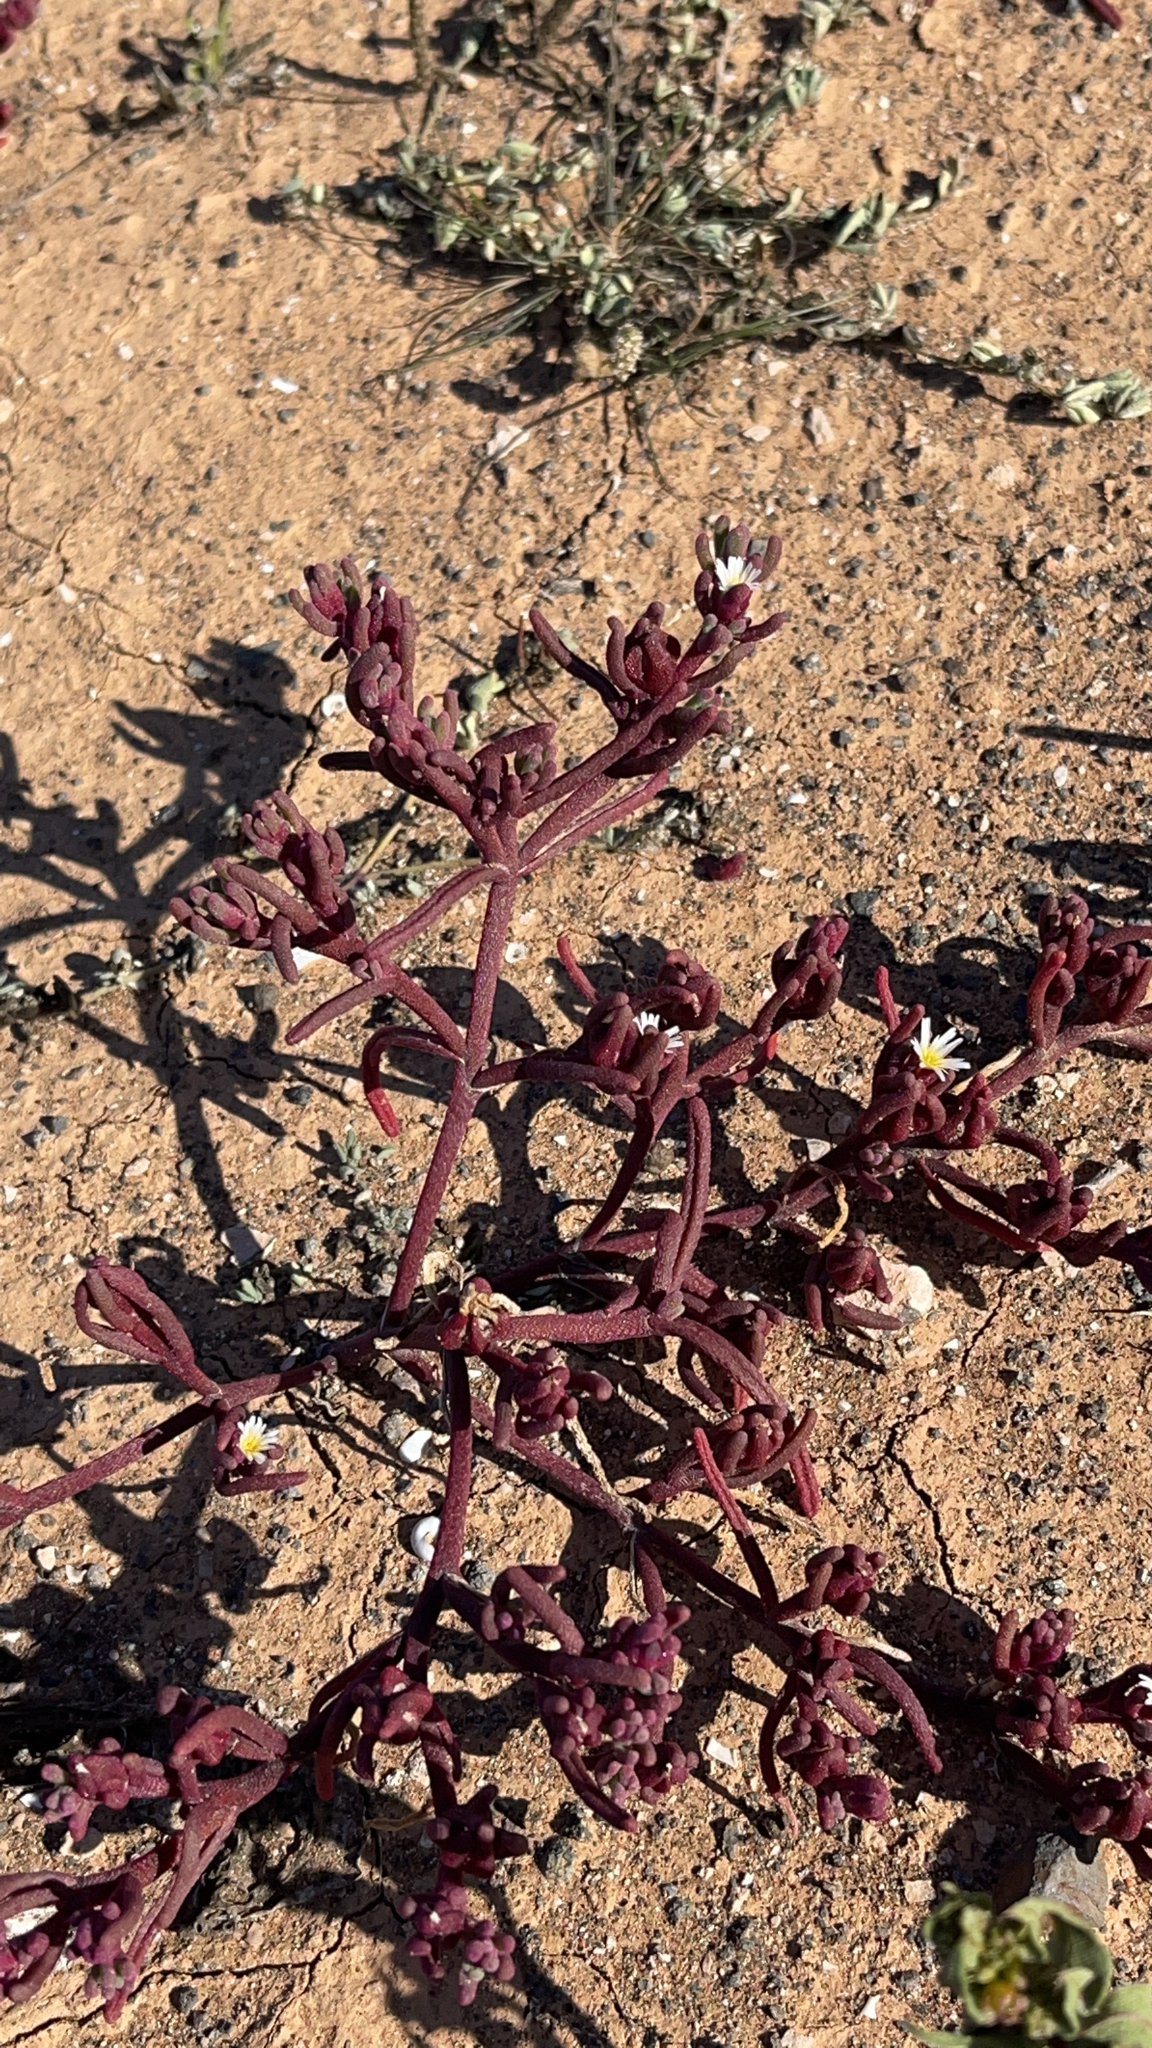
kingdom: Plantae
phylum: Tracheophyta
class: Magnoliopsida
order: Caryophyllales
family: Aizoaceae
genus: Mesembryanthemum
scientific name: Mesembryanthemum nodiflorum
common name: Slenderleaf iceplant
